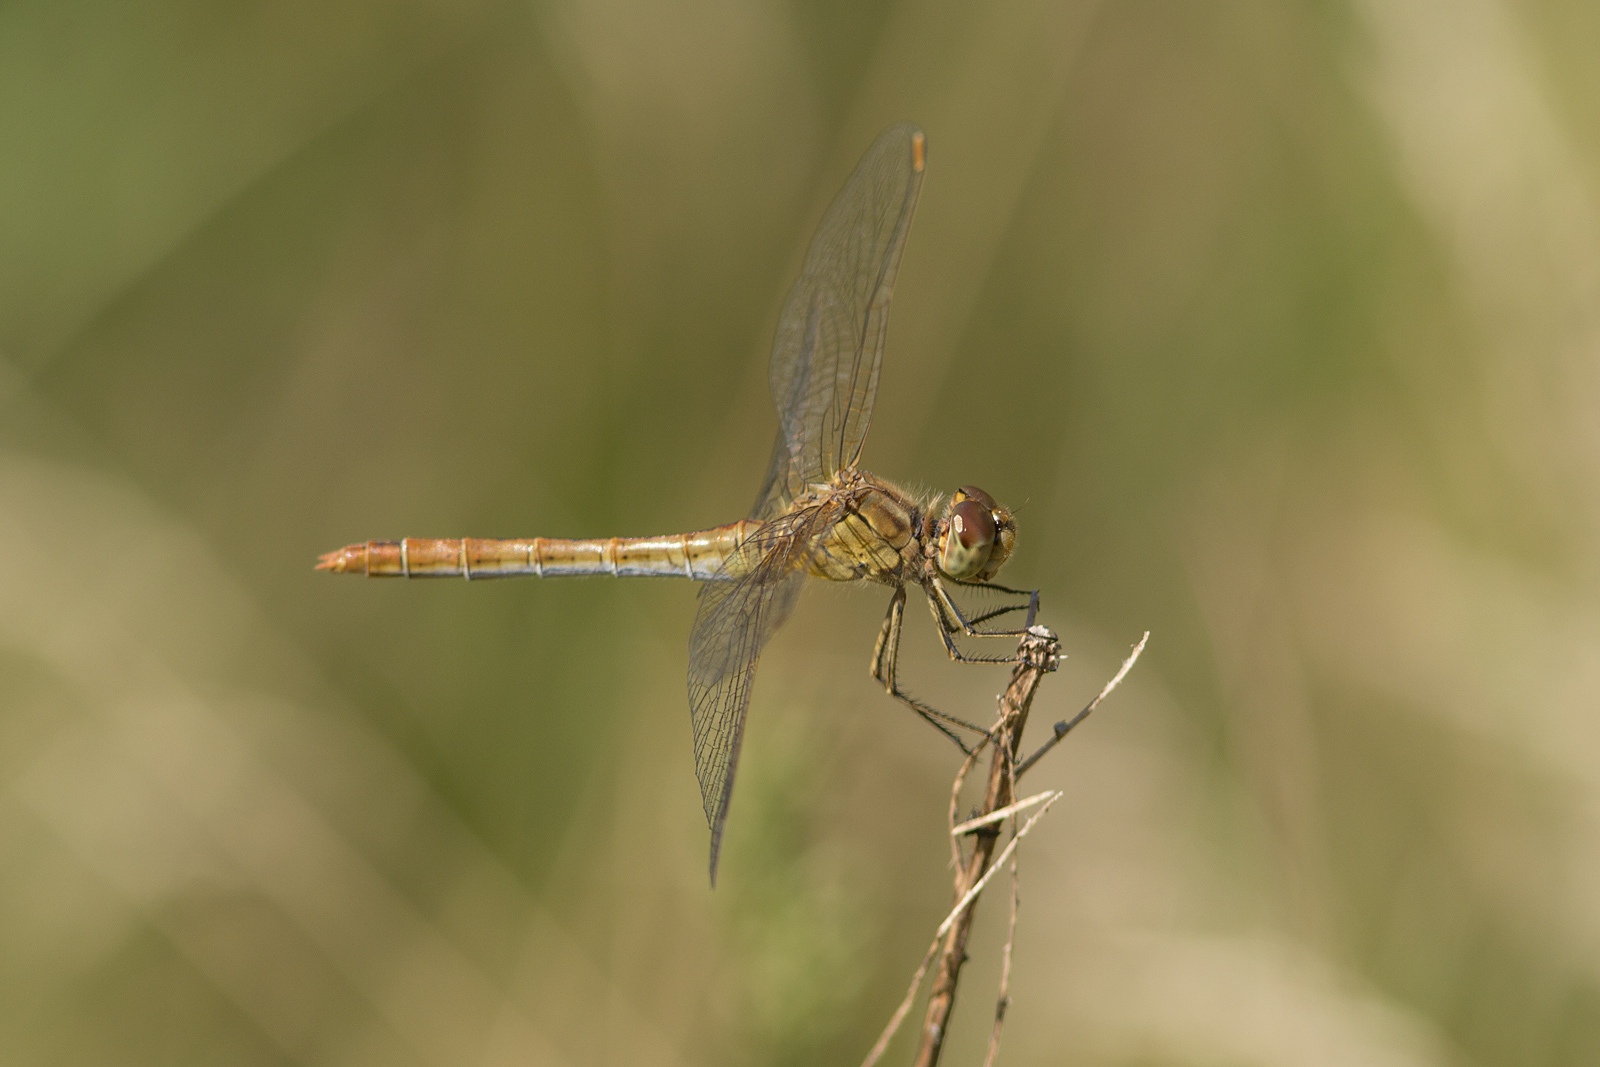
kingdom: Animalia
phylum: Arthropoda
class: Insecta
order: Odonata
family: Libellulidae
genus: Sympetrum
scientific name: Sympetrum meridionale
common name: Southern darter
